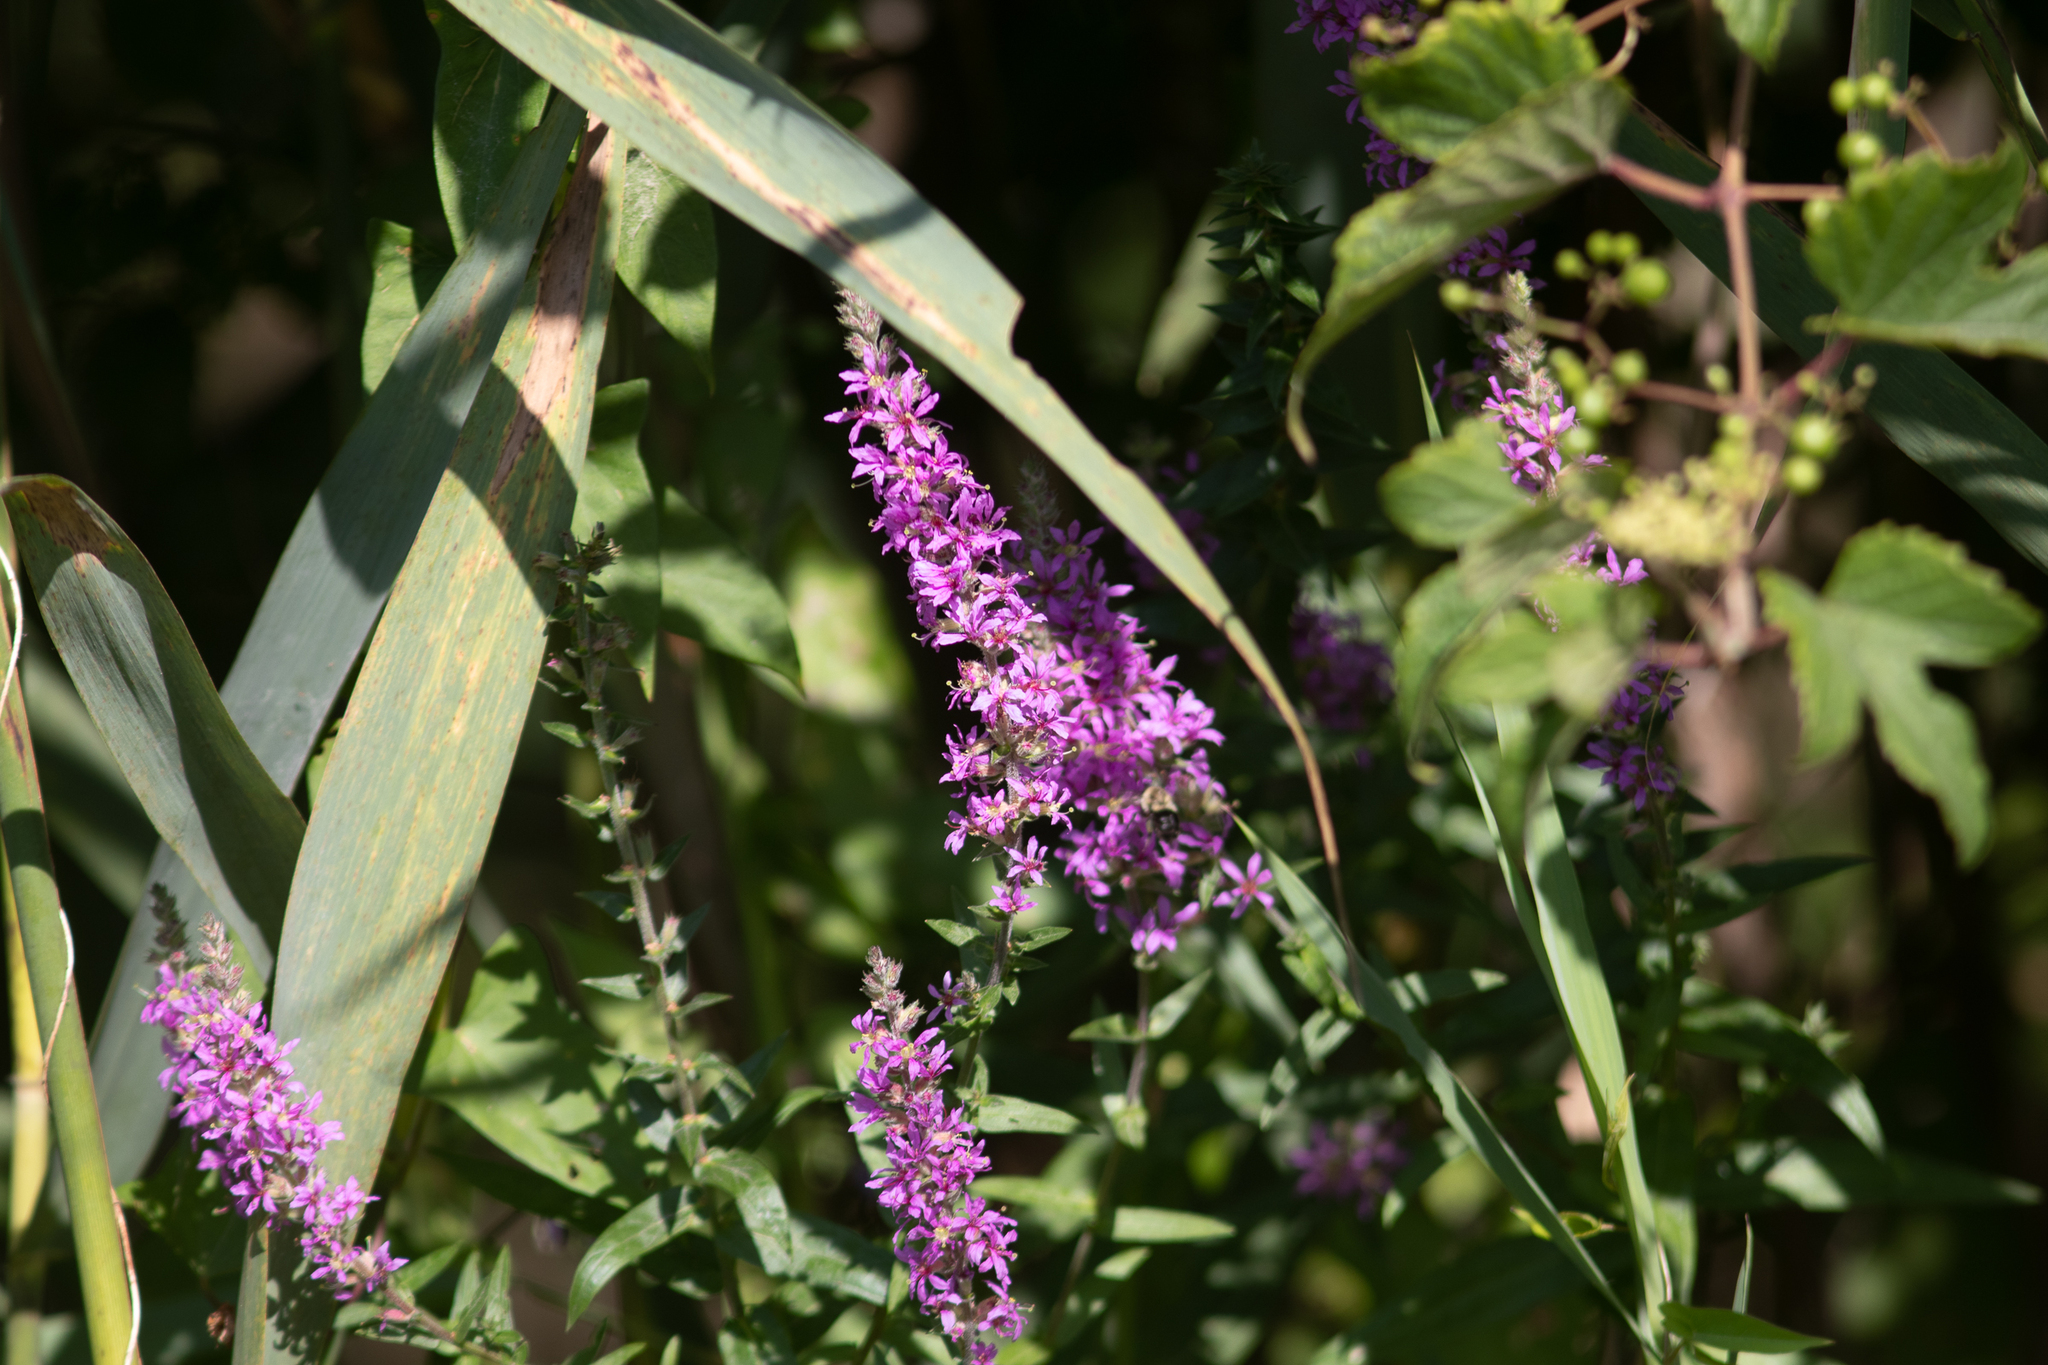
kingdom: Plantae
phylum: Tracheophyta
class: Magnoliopsida
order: Myrtales
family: Lythraceae
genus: Lythrum
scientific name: Lythrum salicaria
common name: Purple loosestrife
